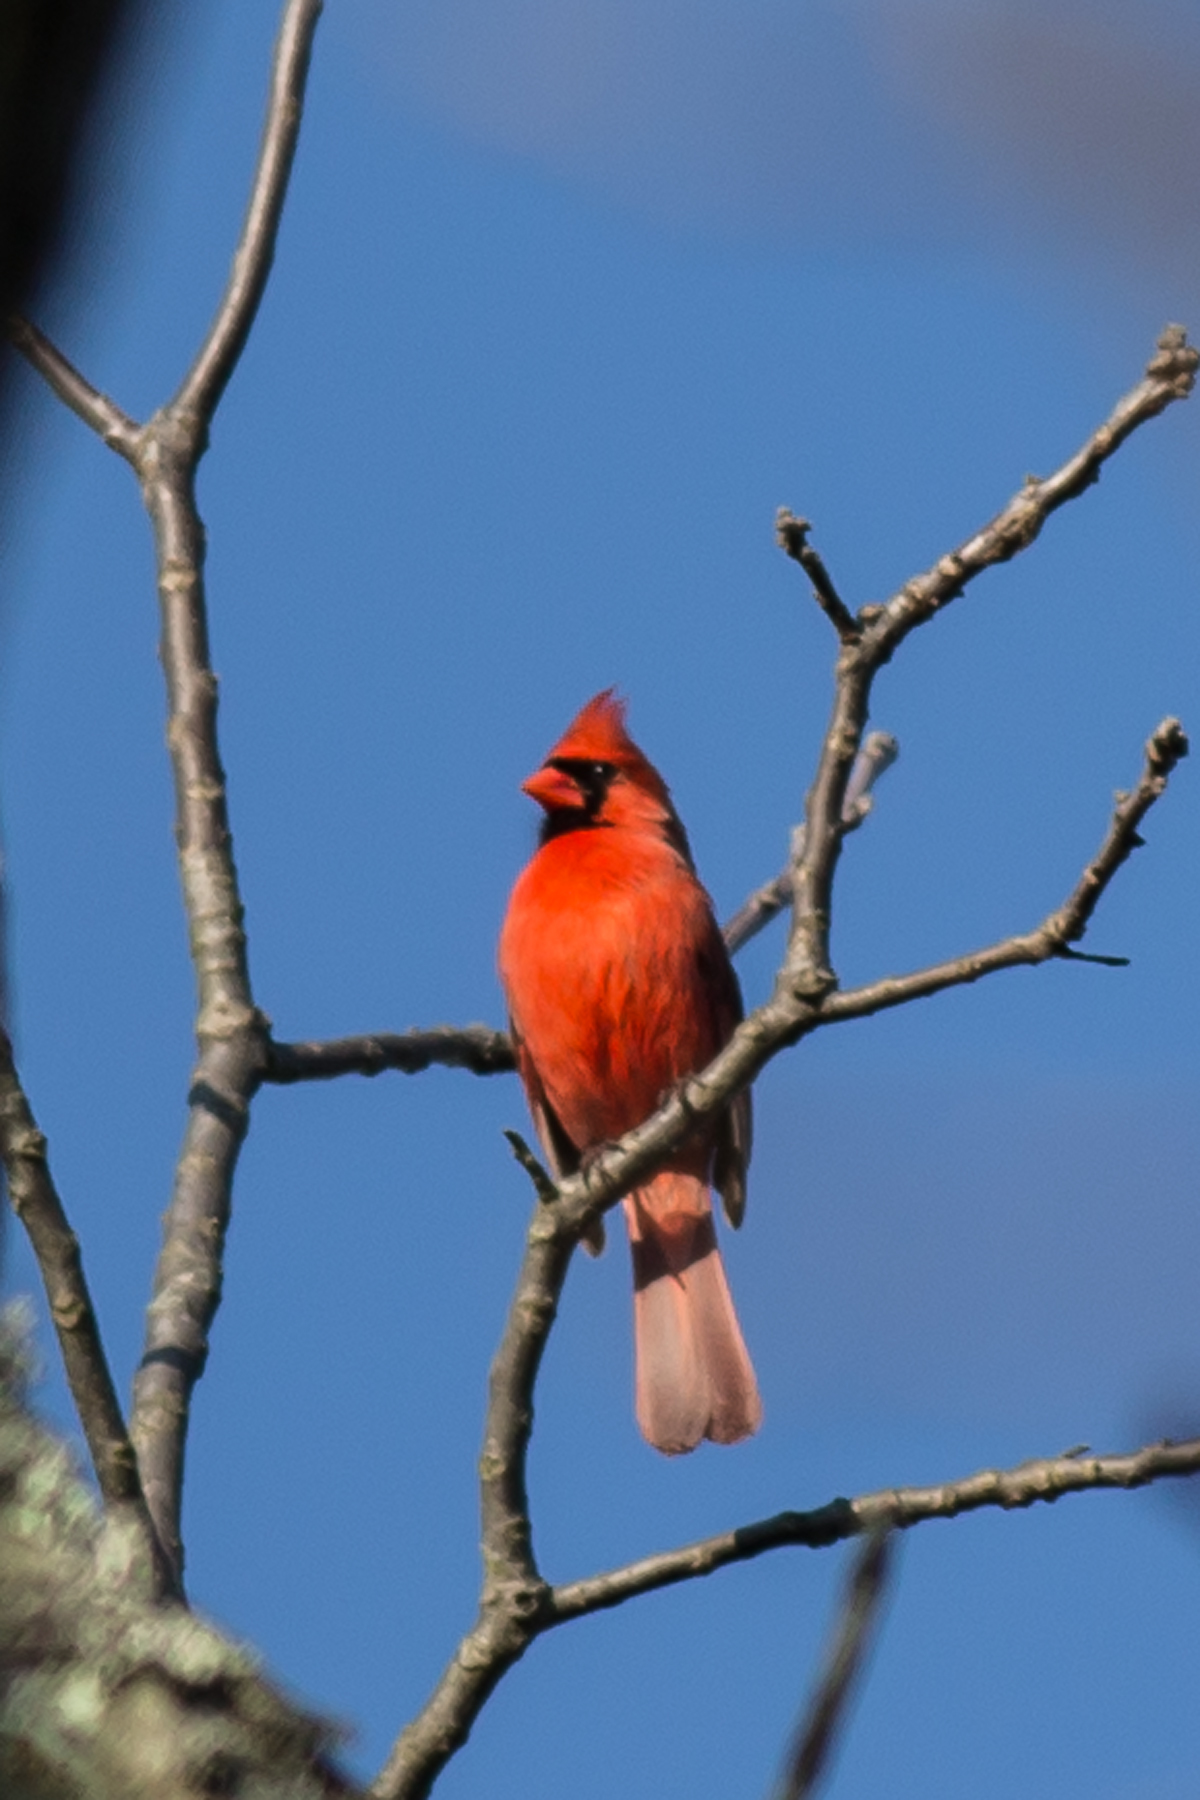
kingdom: Animalia
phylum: Chordata
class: Aves
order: Passeriformes
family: Cardinalidae
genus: Cardinalis
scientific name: Cardinalis cardinalis
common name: Northern cardinal
